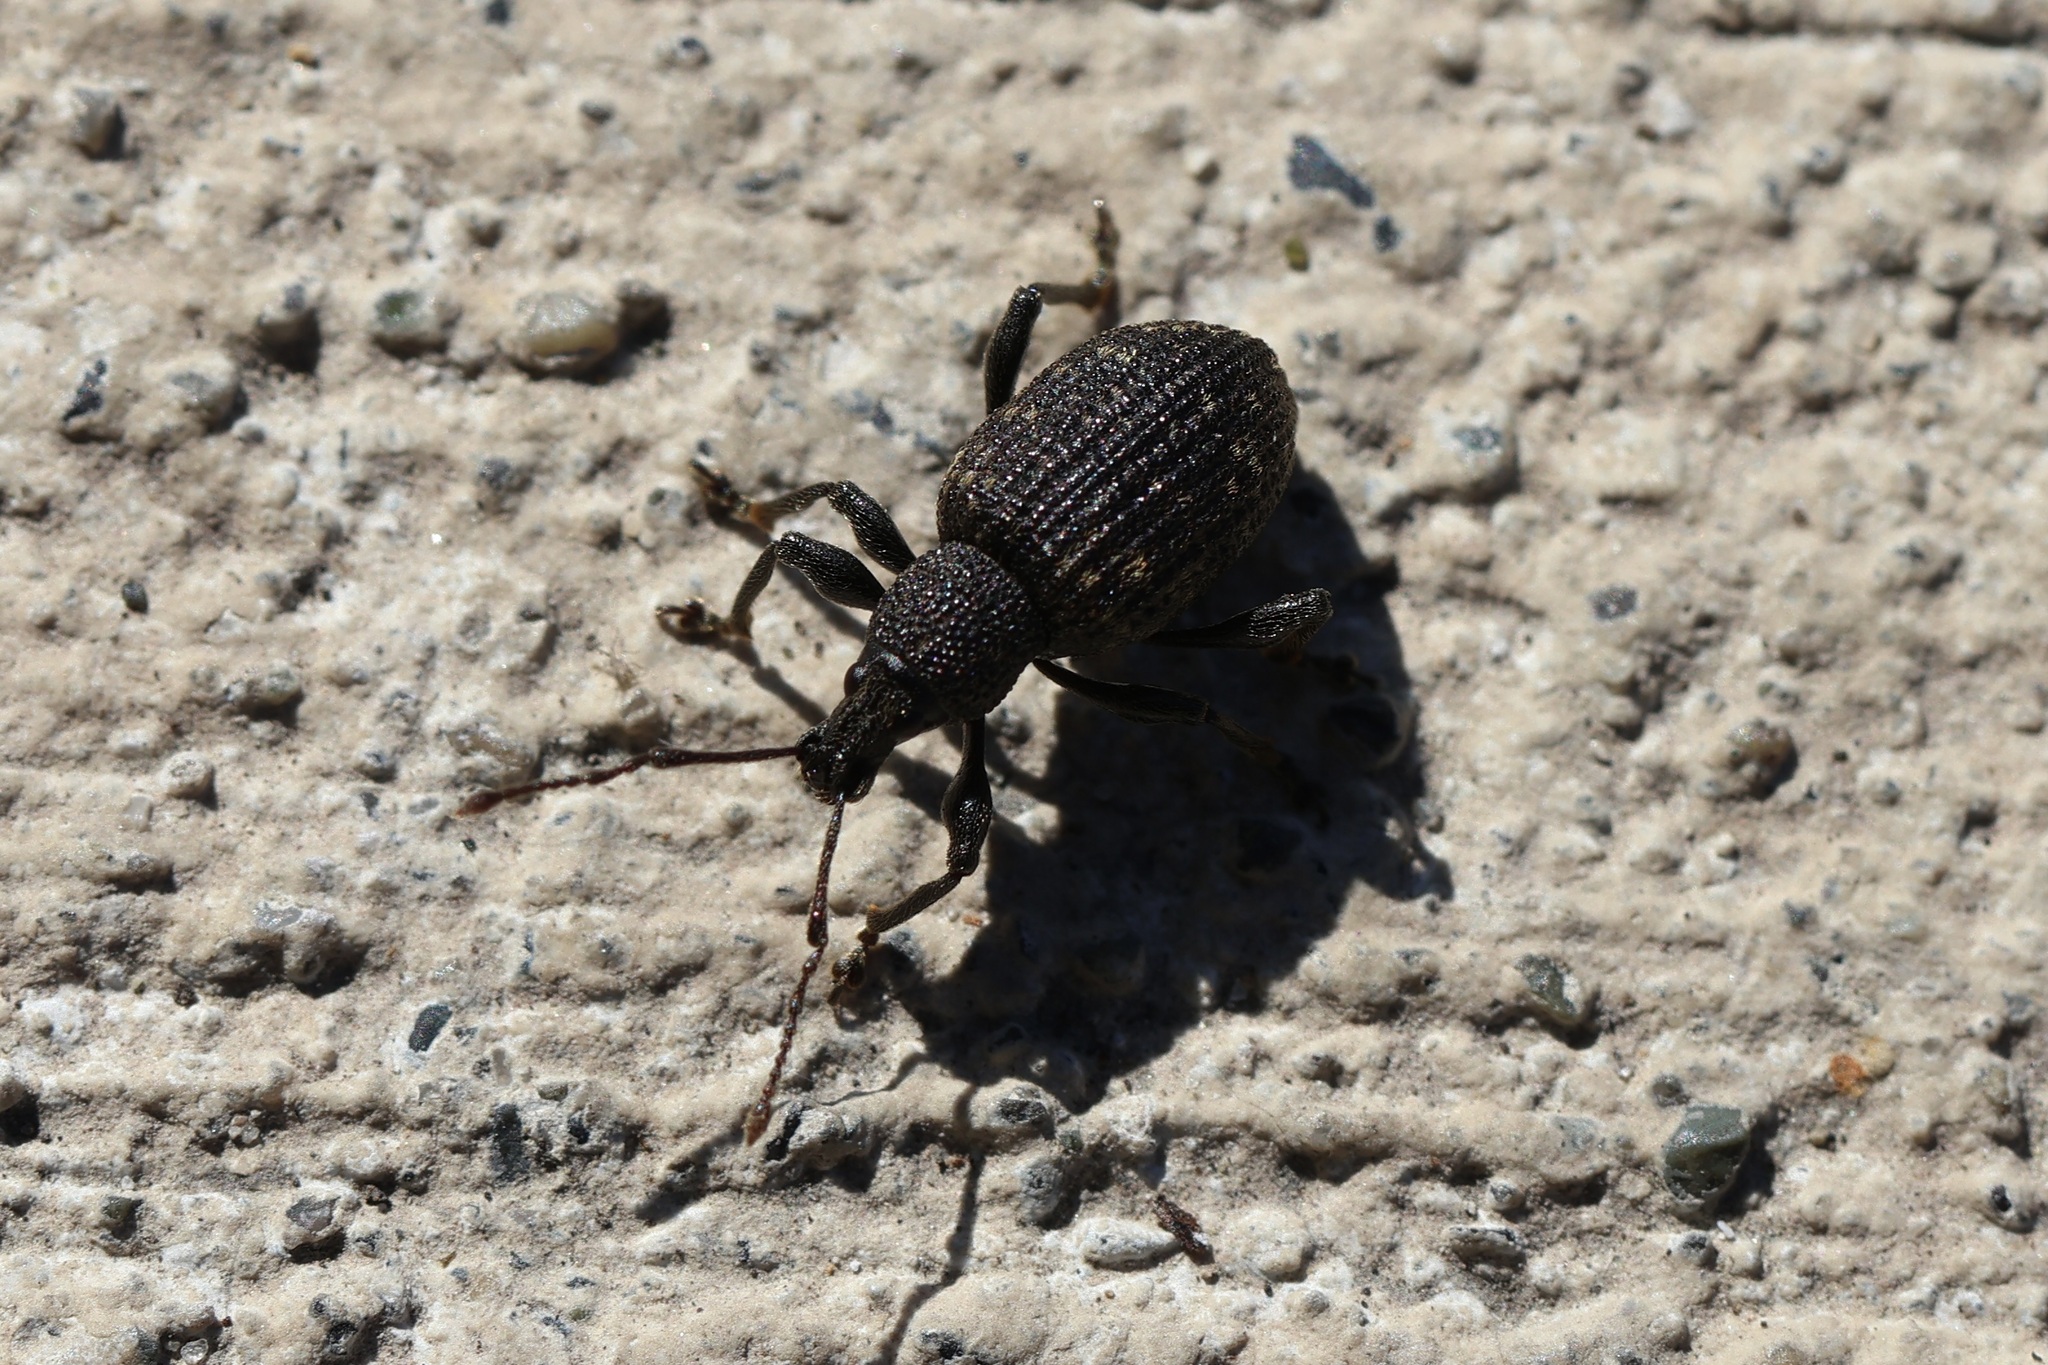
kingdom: Animalia
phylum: Arthropoda
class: Insecta
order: Coleoptera
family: Curculionidae
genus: Otiorhynchus
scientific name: Otiorhynchus sulcatus
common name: Black vine weevil
